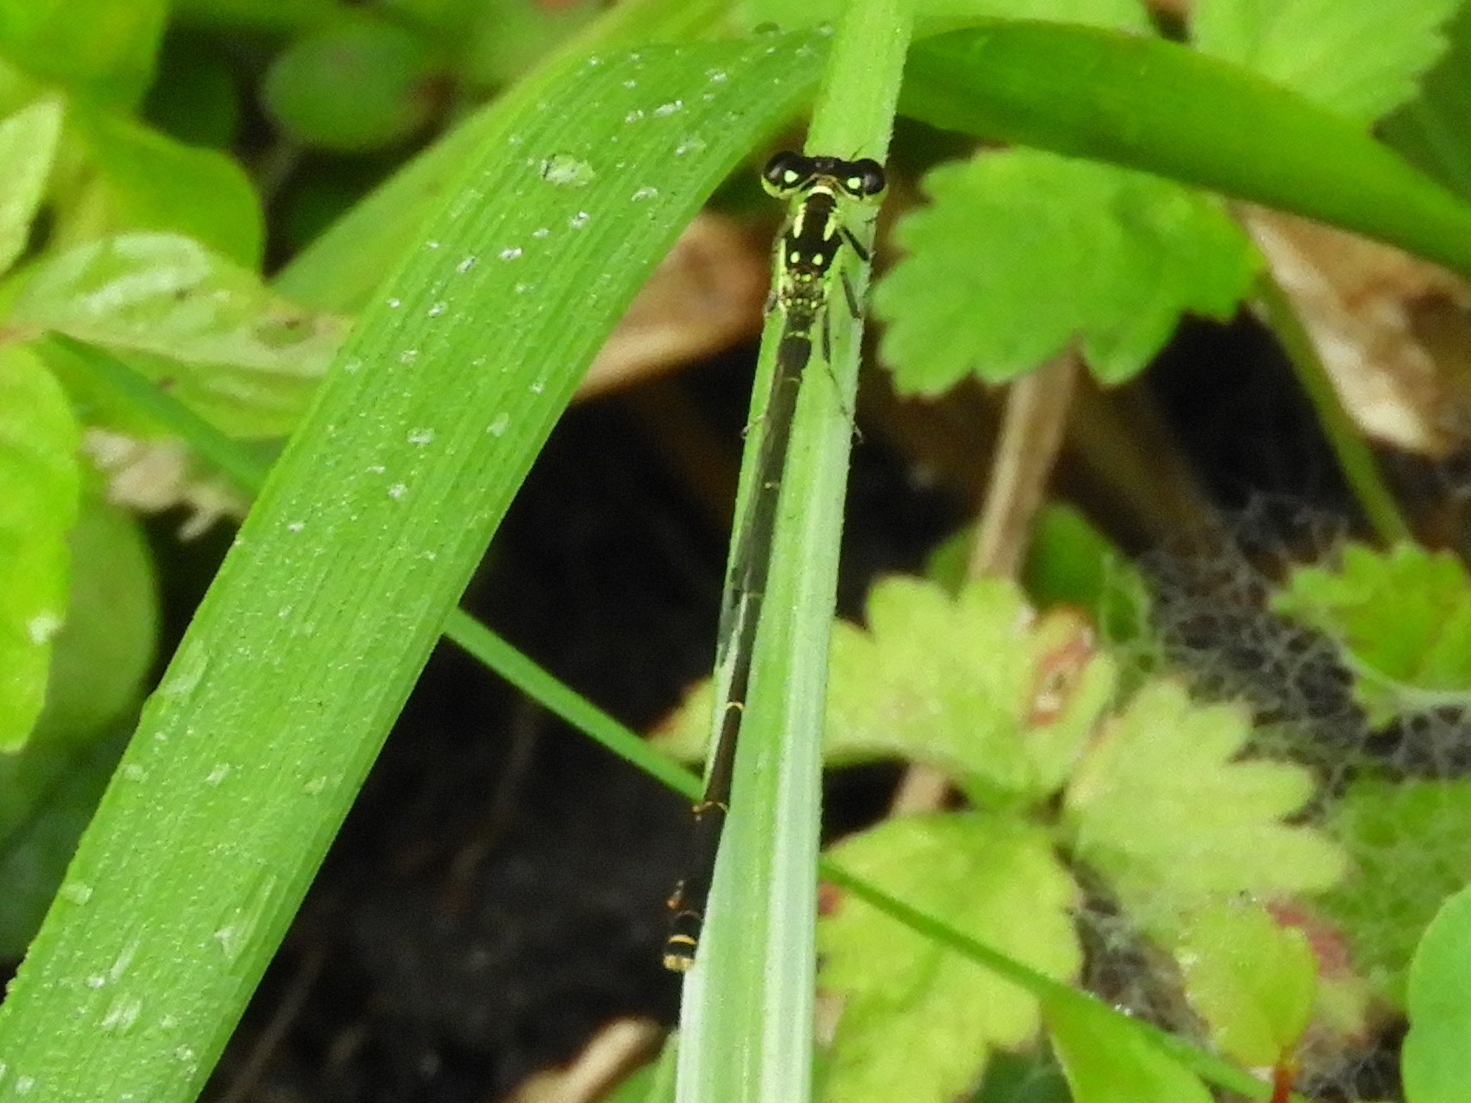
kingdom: Animalia
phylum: Arthropoda
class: Insecta
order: Odonata
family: Coenagrionidae
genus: Ischnura
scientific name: Ischnura posita
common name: Fragile forktail
